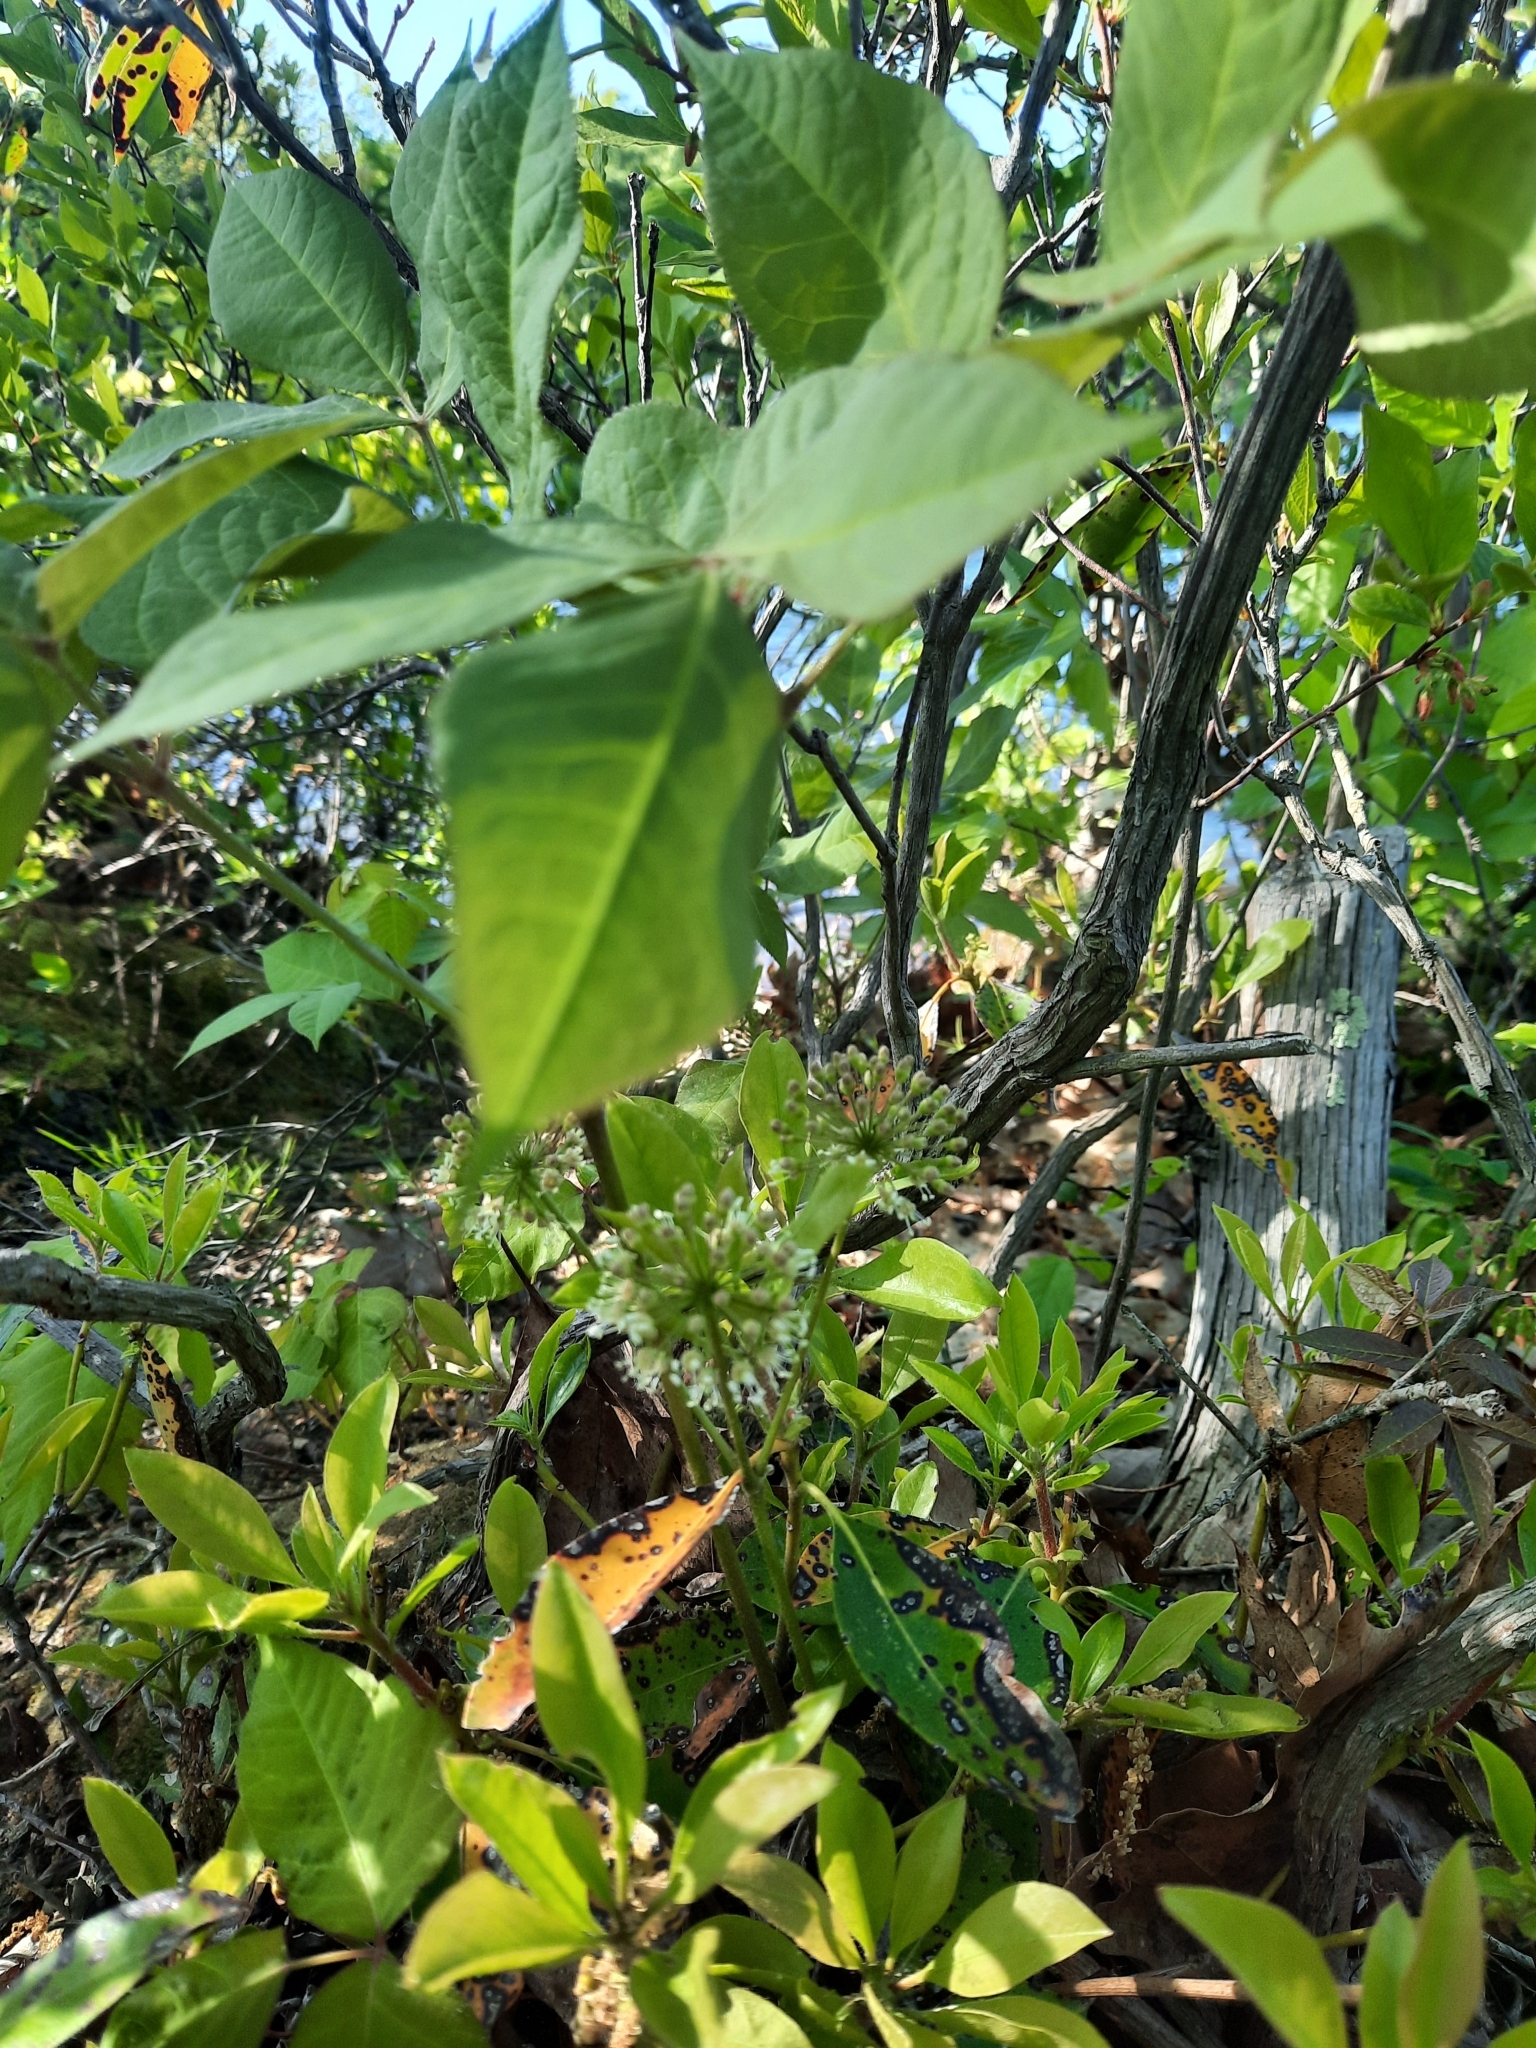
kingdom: Plantae
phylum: Tracheophyta
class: Magnoliopsida
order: Apiales
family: Araliaceae
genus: Aralia
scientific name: Aralia nudicaulis
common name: Wild sarsaparilla
